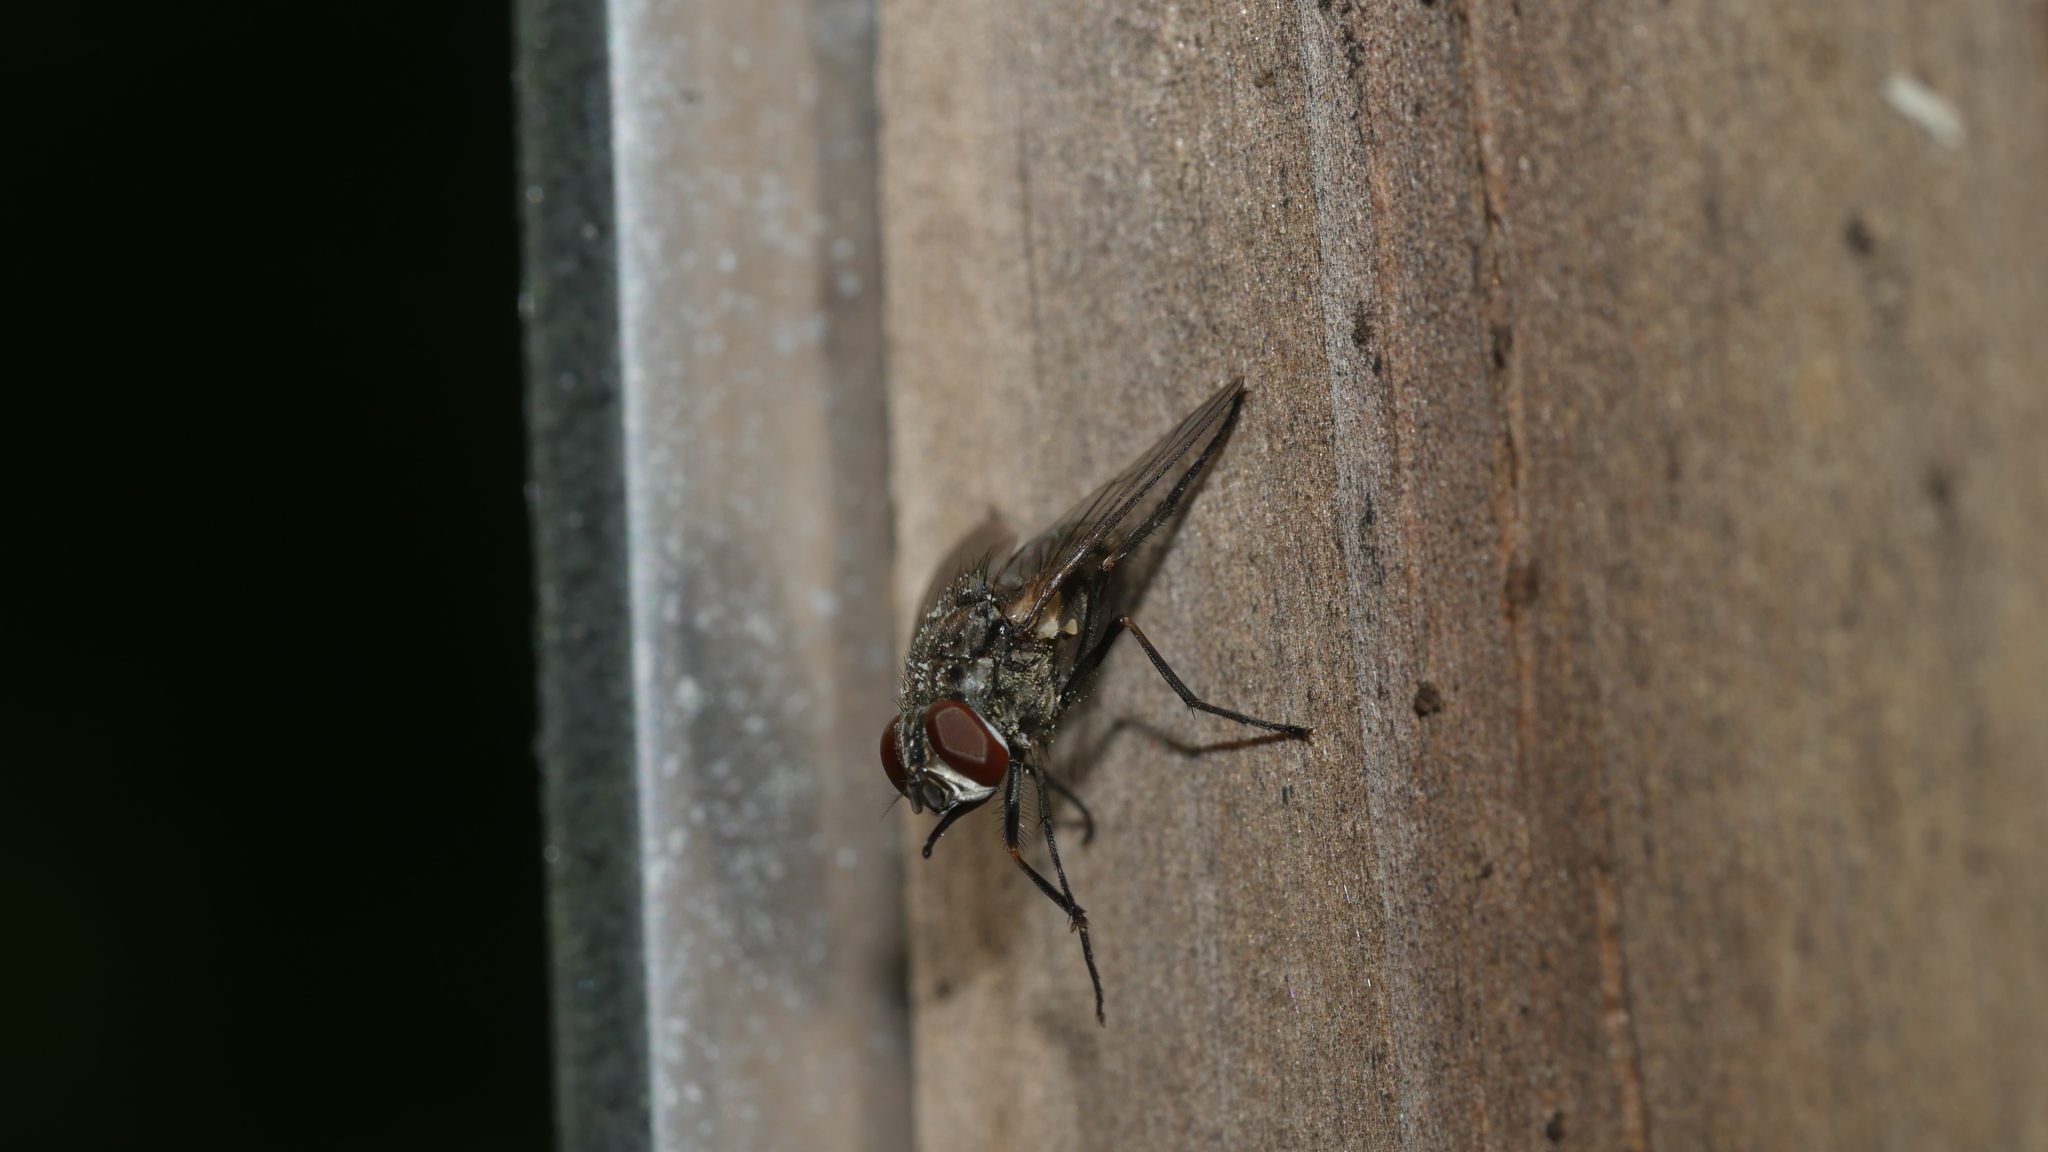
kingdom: Animalia
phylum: Arthropoda
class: Insecta
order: Diptera
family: Muscidae
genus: Stomoxys
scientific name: Stomoxys calcitrans
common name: Stable fly
